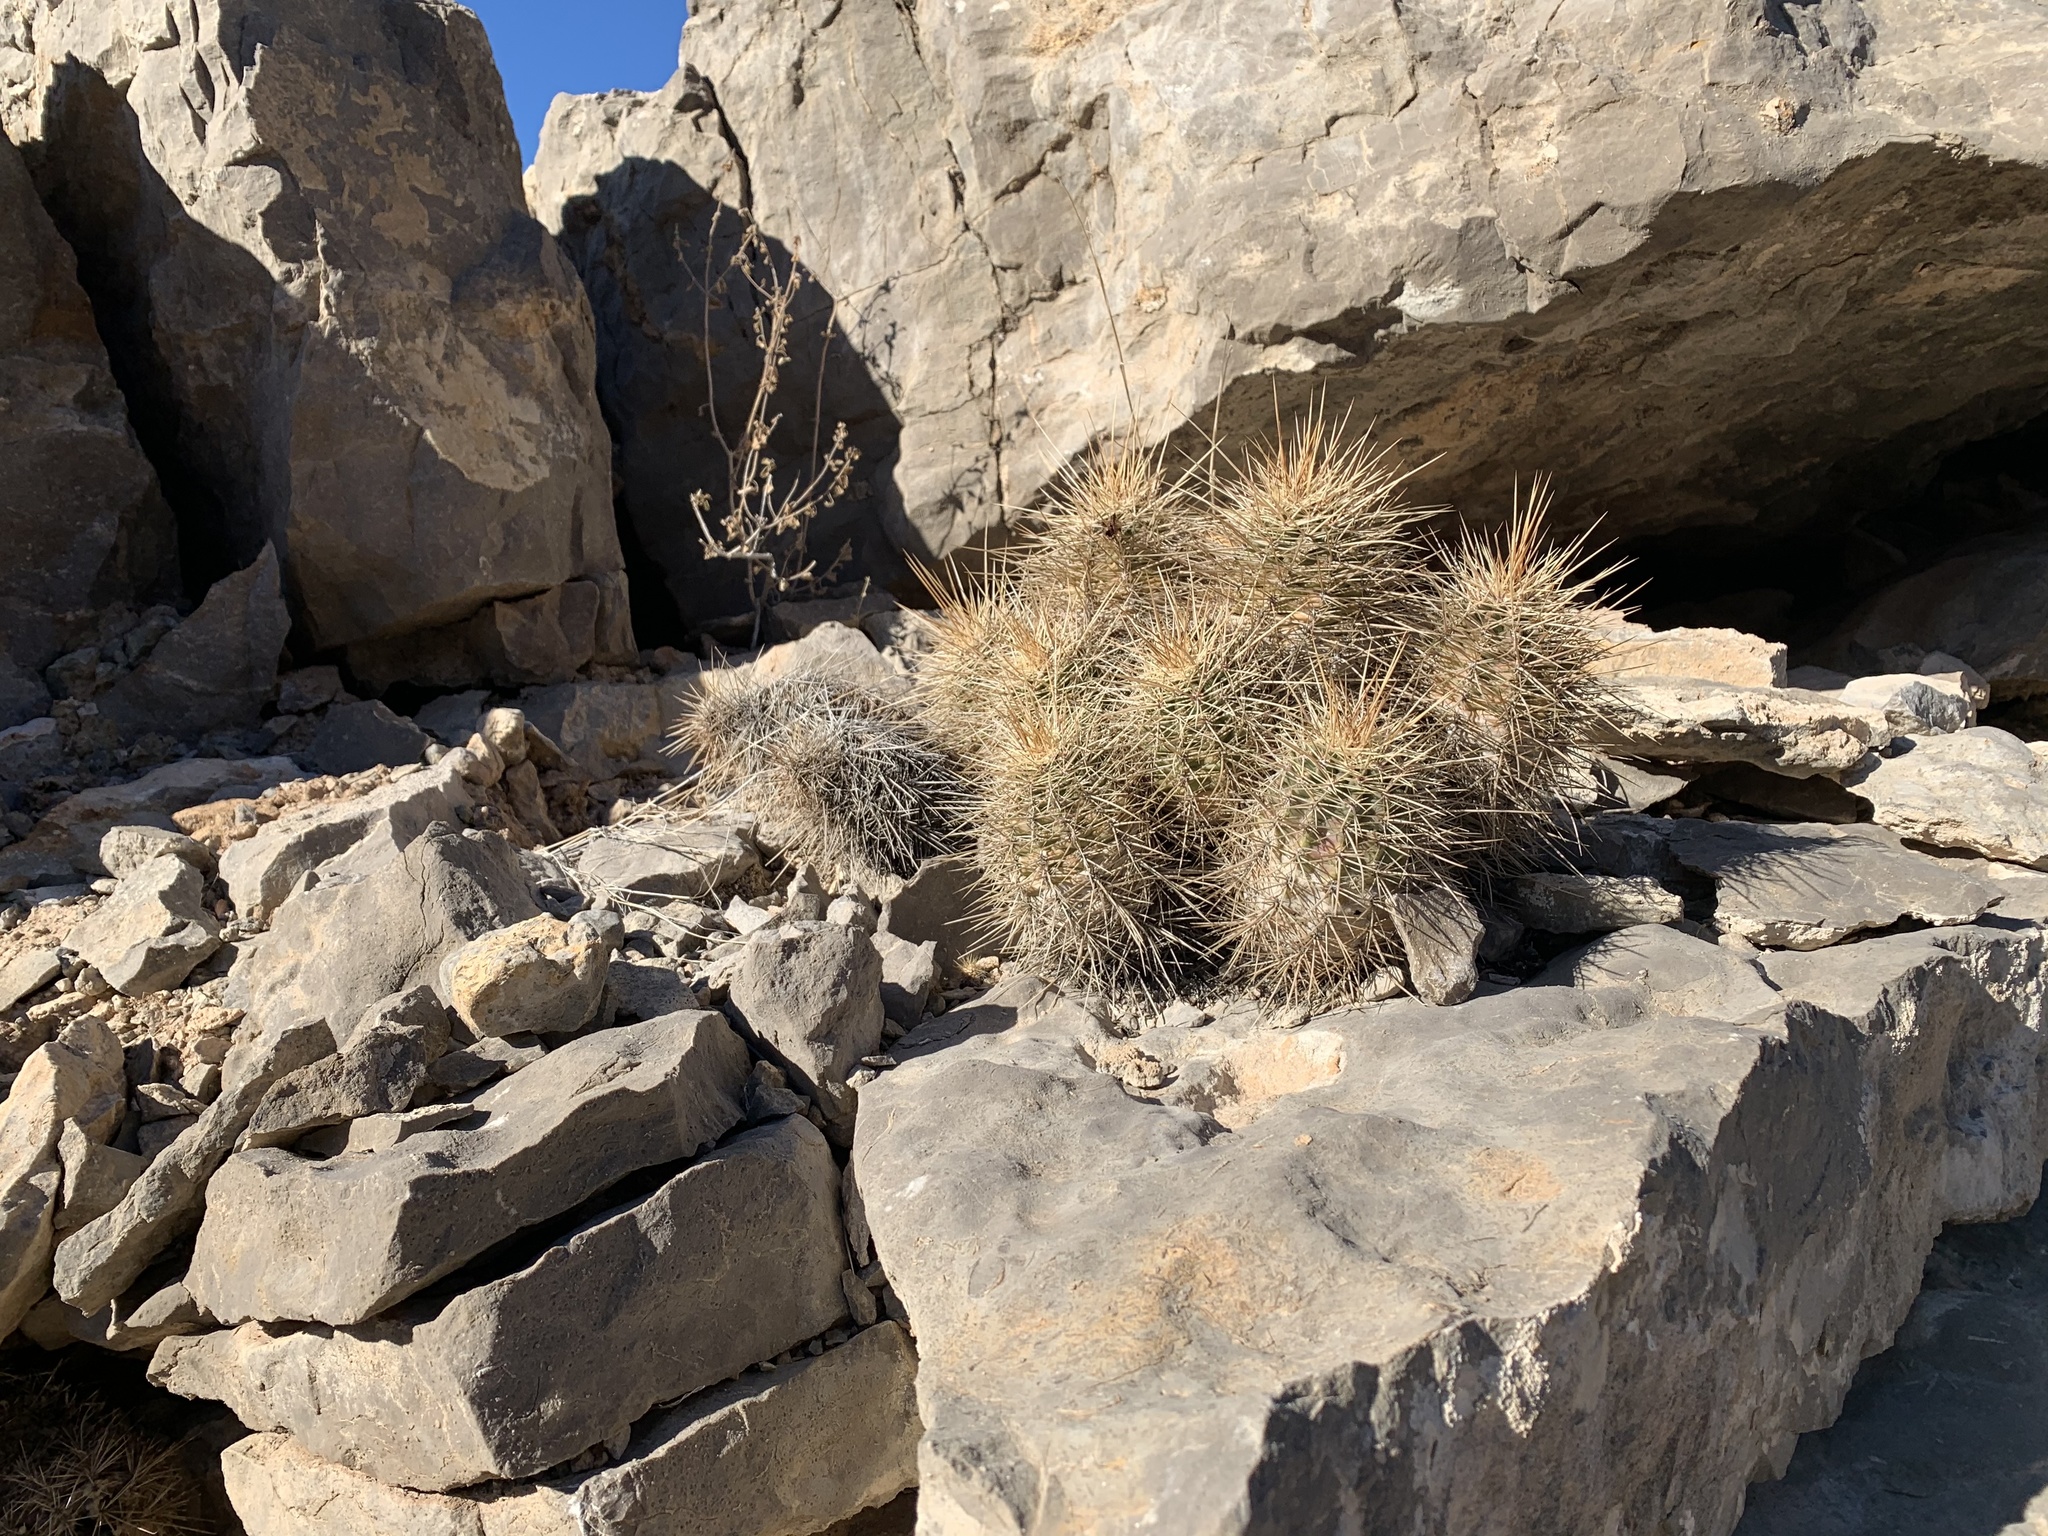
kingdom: Plantae
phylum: Tracheophyta
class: Magnoliopsida
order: Caryophyllales
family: Cactaceae
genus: Echinocereus
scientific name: Echinocereus coccineus
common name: Scarlet hedgehog cactus
